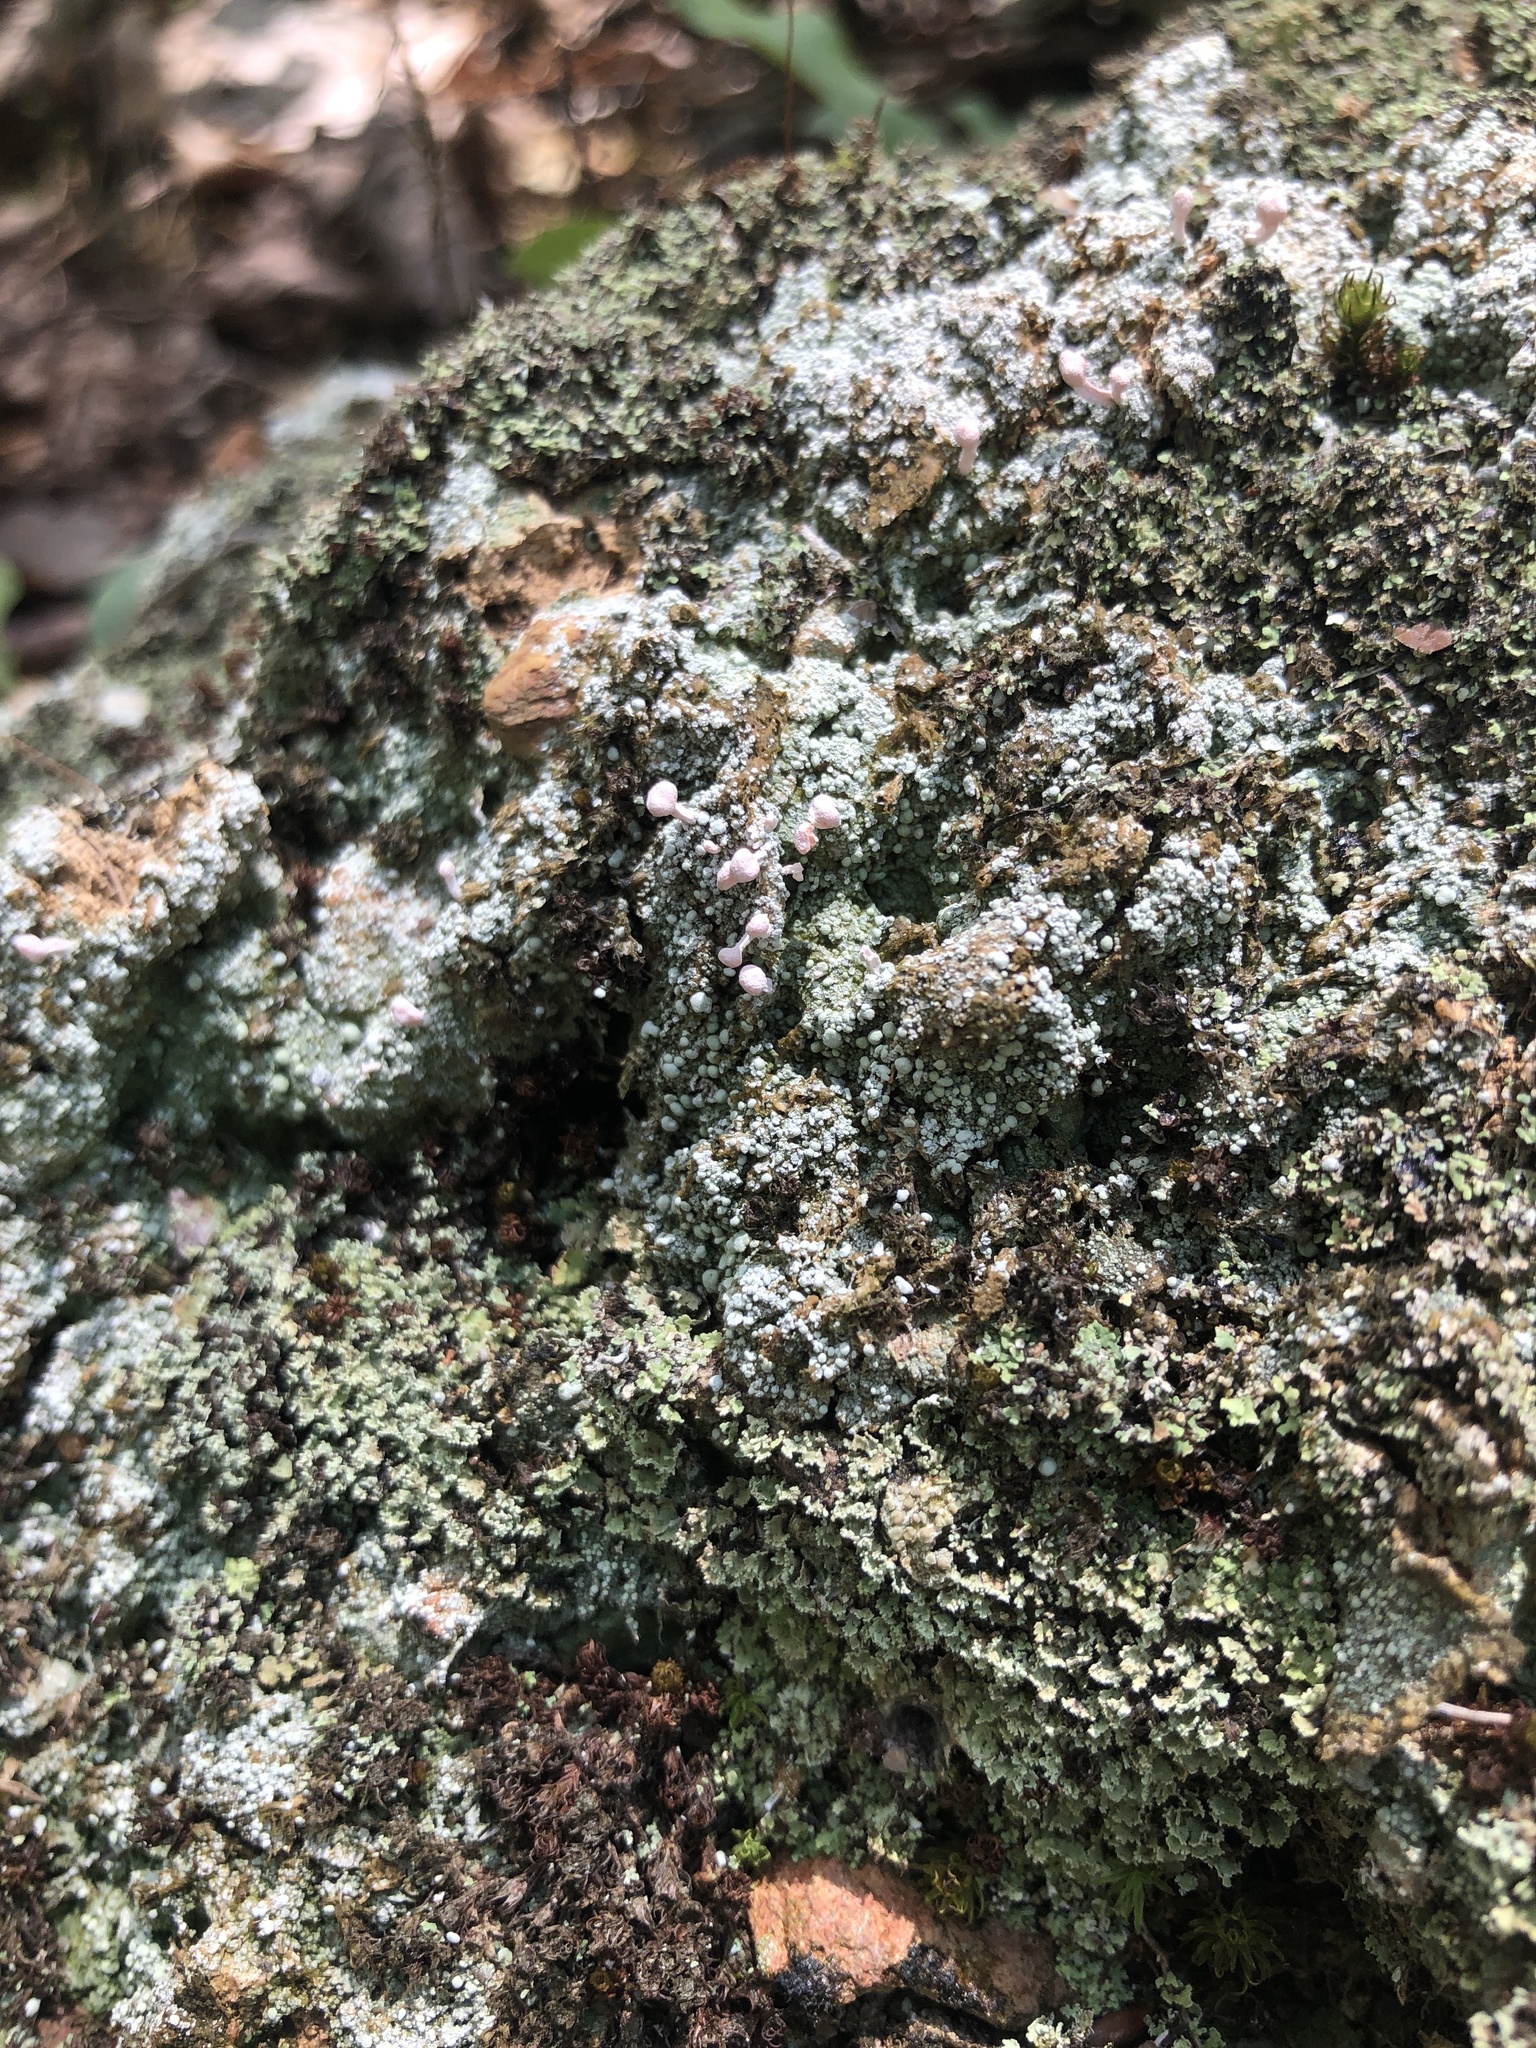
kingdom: Fungi
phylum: Ascomycota
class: Lecanoromycetes
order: Pertusariales
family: Icmadophilaceae
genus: Dibaeis
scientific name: Dibaeis baeomyces
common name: Pink earth lichen
